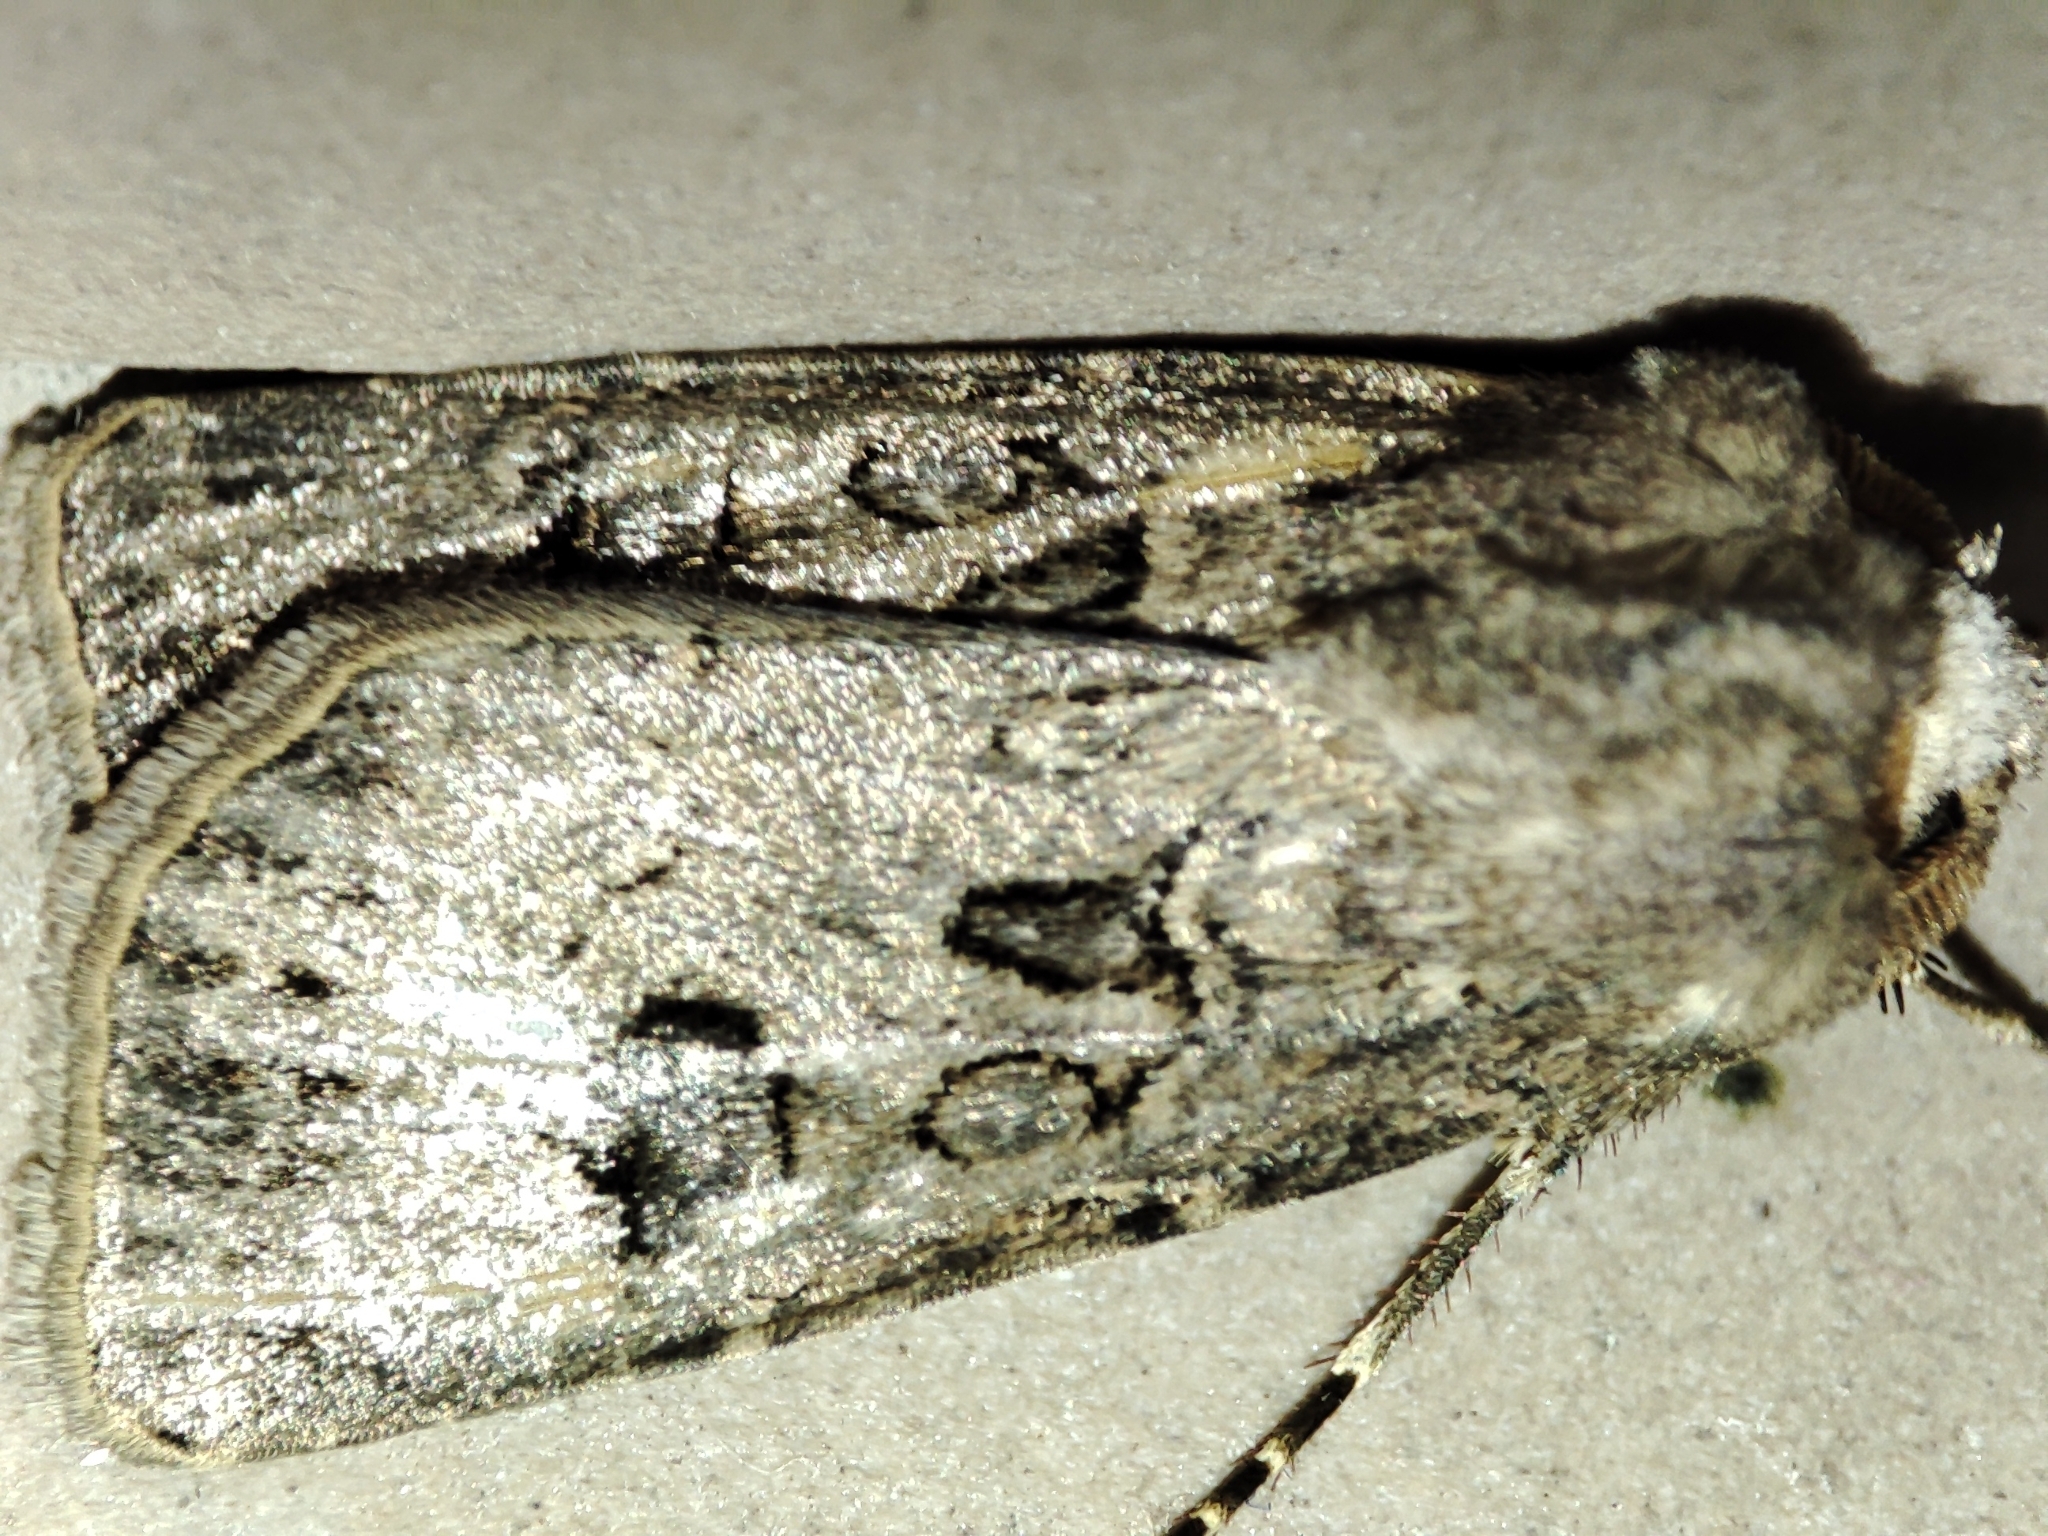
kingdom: Animalia
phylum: Arthropoda
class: Insecta
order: Lepidoptera
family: Noctuidae
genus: Agrotis
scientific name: Agrotis bigramma
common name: Great dart
